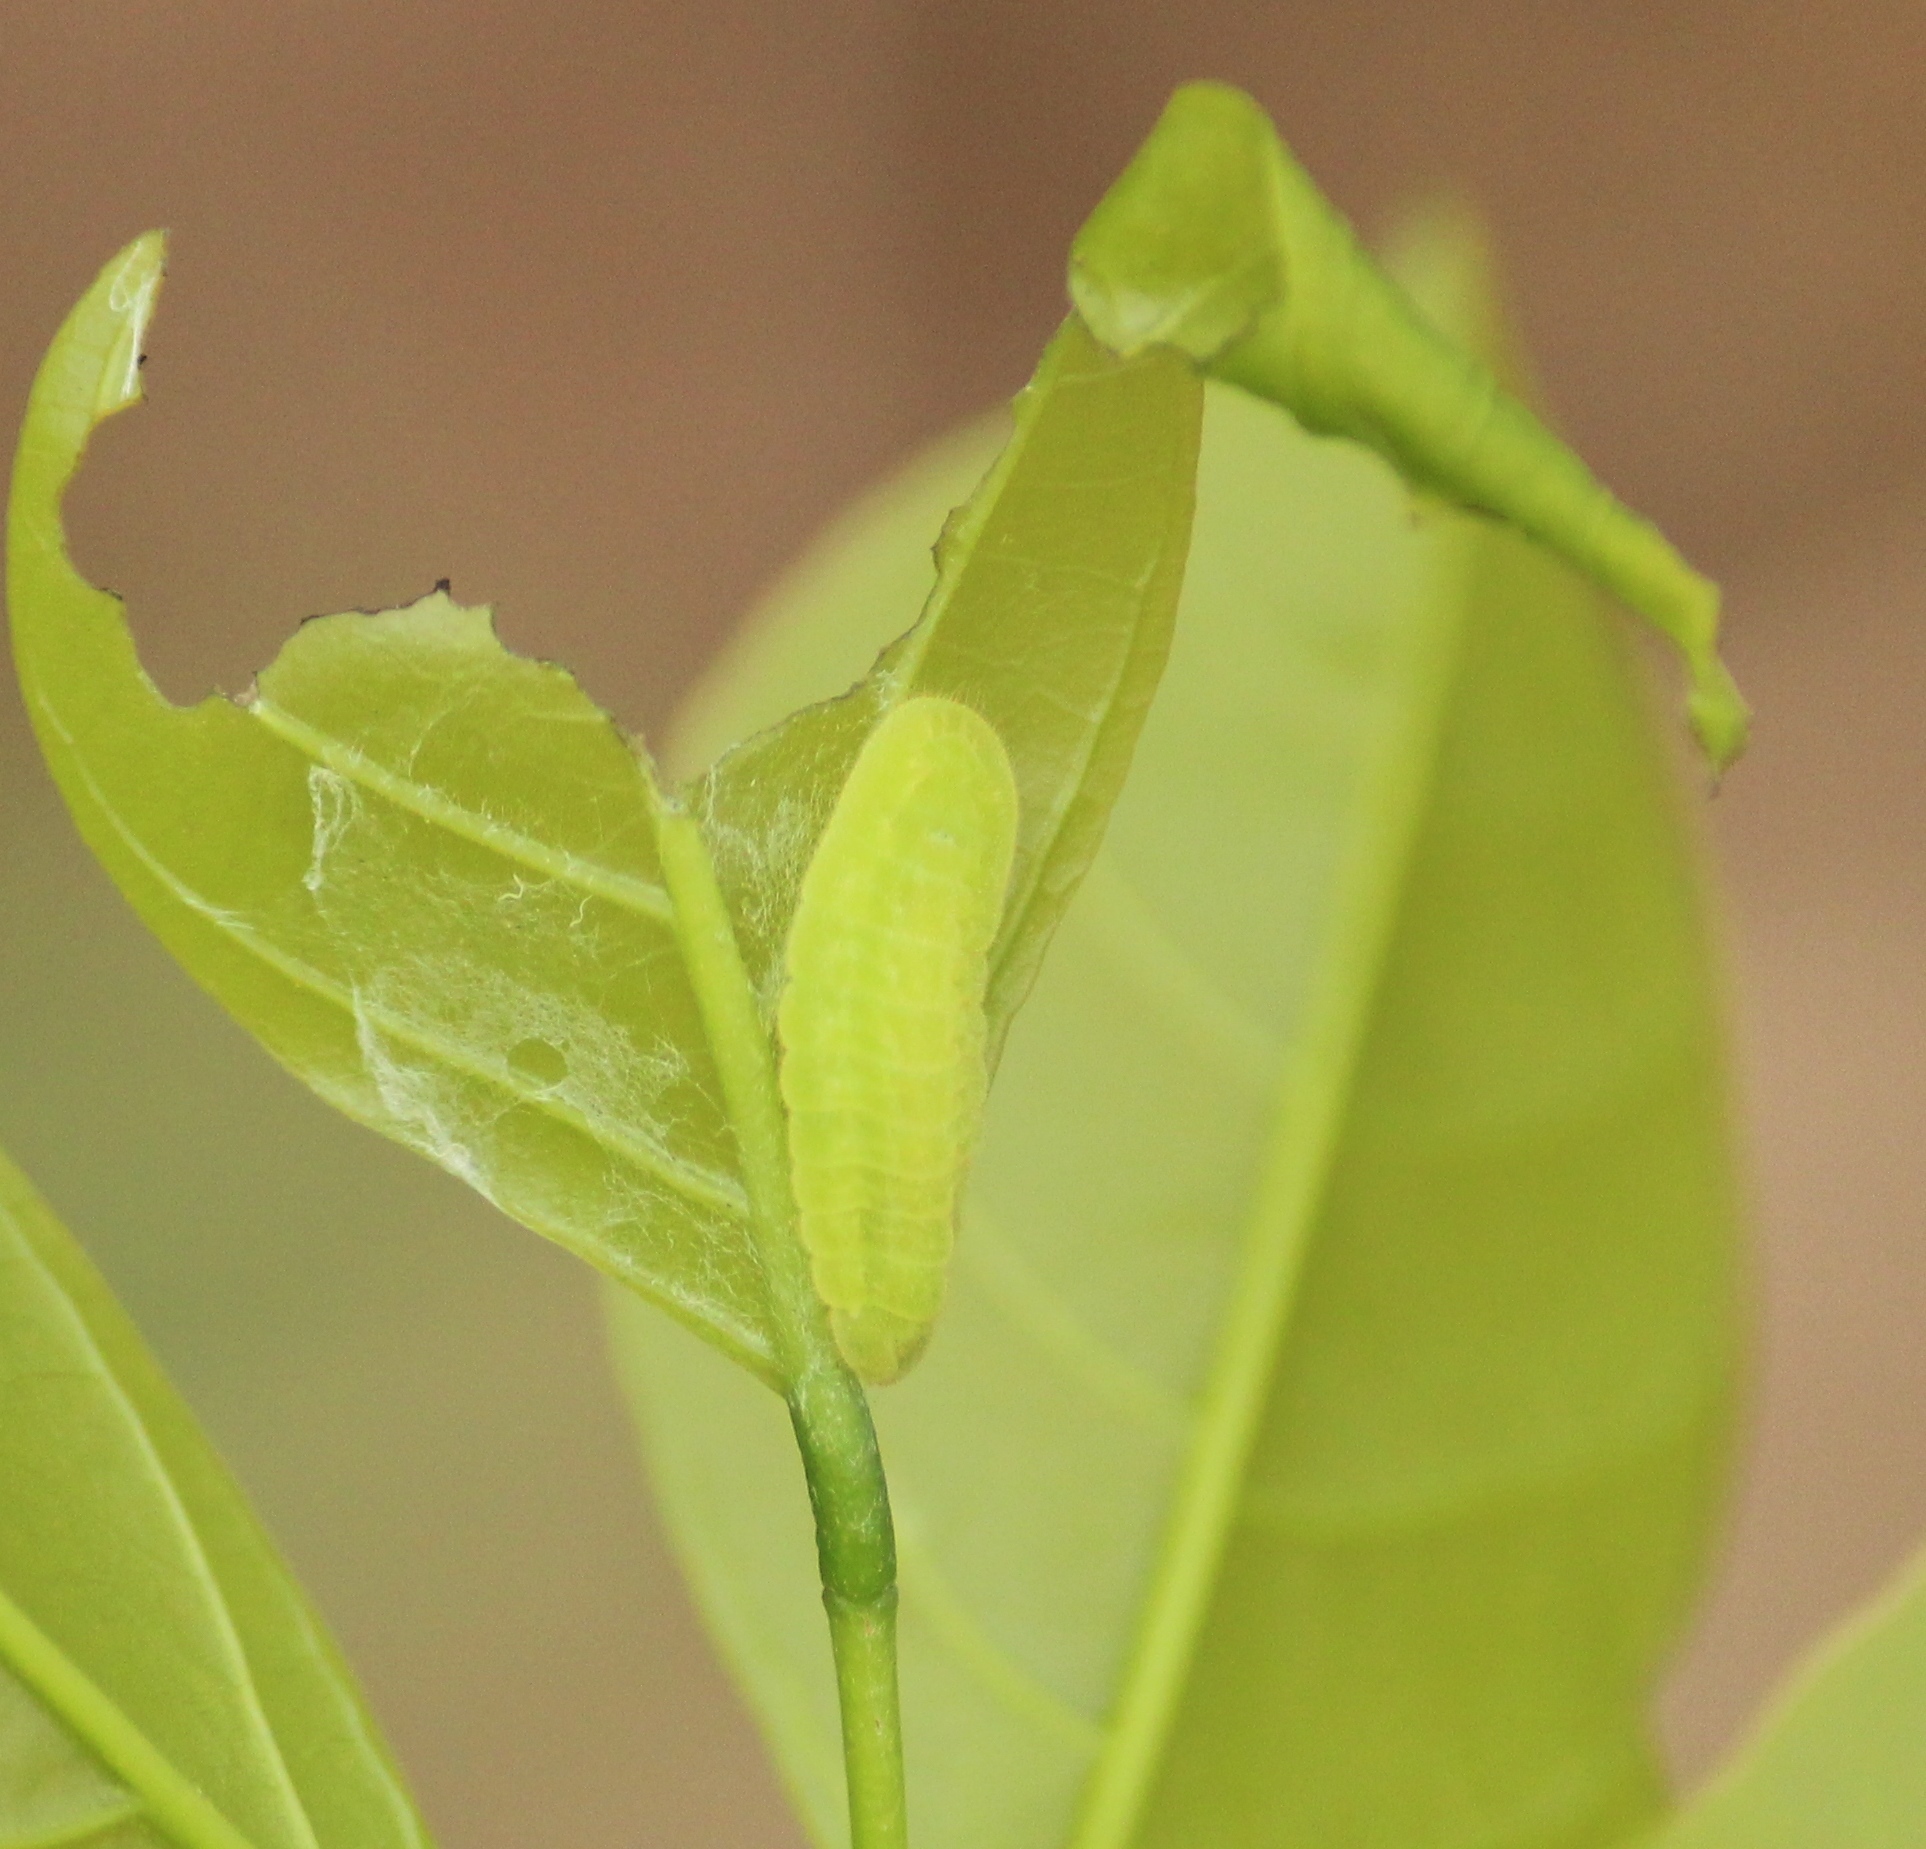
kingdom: Animalia
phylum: Arthropoda
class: Insecta
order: Lepidoptera
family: Lycaenidae
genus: Jamides
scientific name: Jamides celeno
